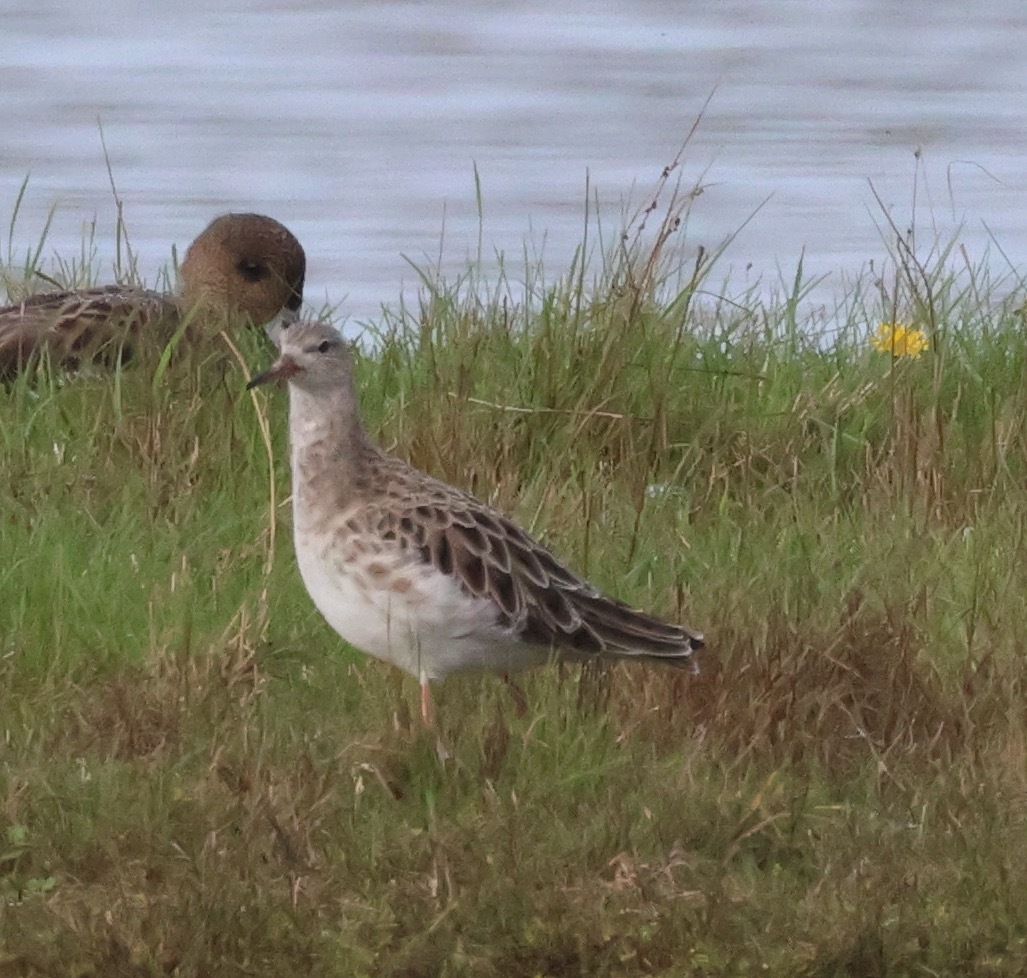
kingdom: Animalia
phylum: Chordata
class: Aves
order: Charadriiformes
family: Scolopacidae
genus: Calidris
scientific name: Calidris pugnax
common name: Ruff
